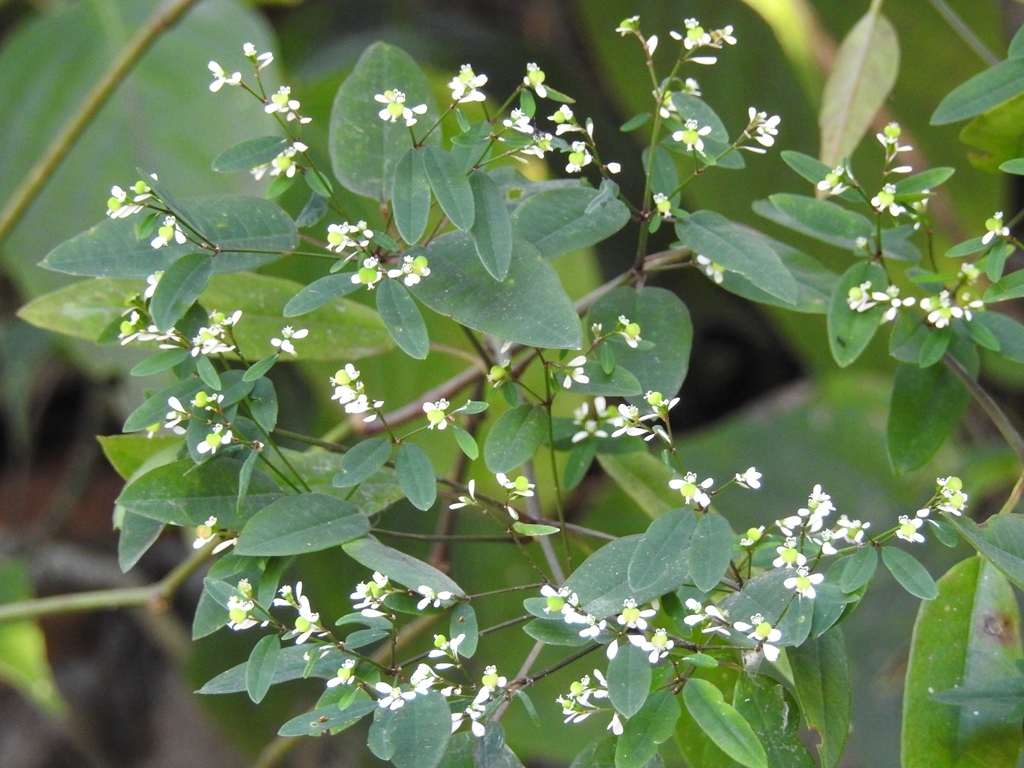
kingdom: Plantae
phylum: Tracheophyta
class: Magnoliopsida
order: Malpighiales
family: Euphorbiaceae
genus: Euphorbia
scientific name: Euphorbia ariensis
